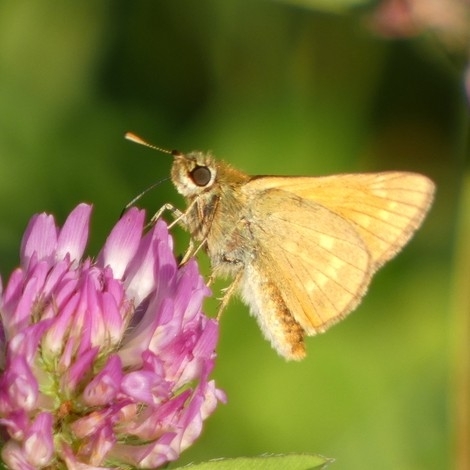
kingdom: Animalia
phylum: Arthropoda
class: Insecta
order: Lepidoptera
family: Hesperiidae
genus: Ochlodes
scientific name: Ochlodes venata
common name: Large skipper
